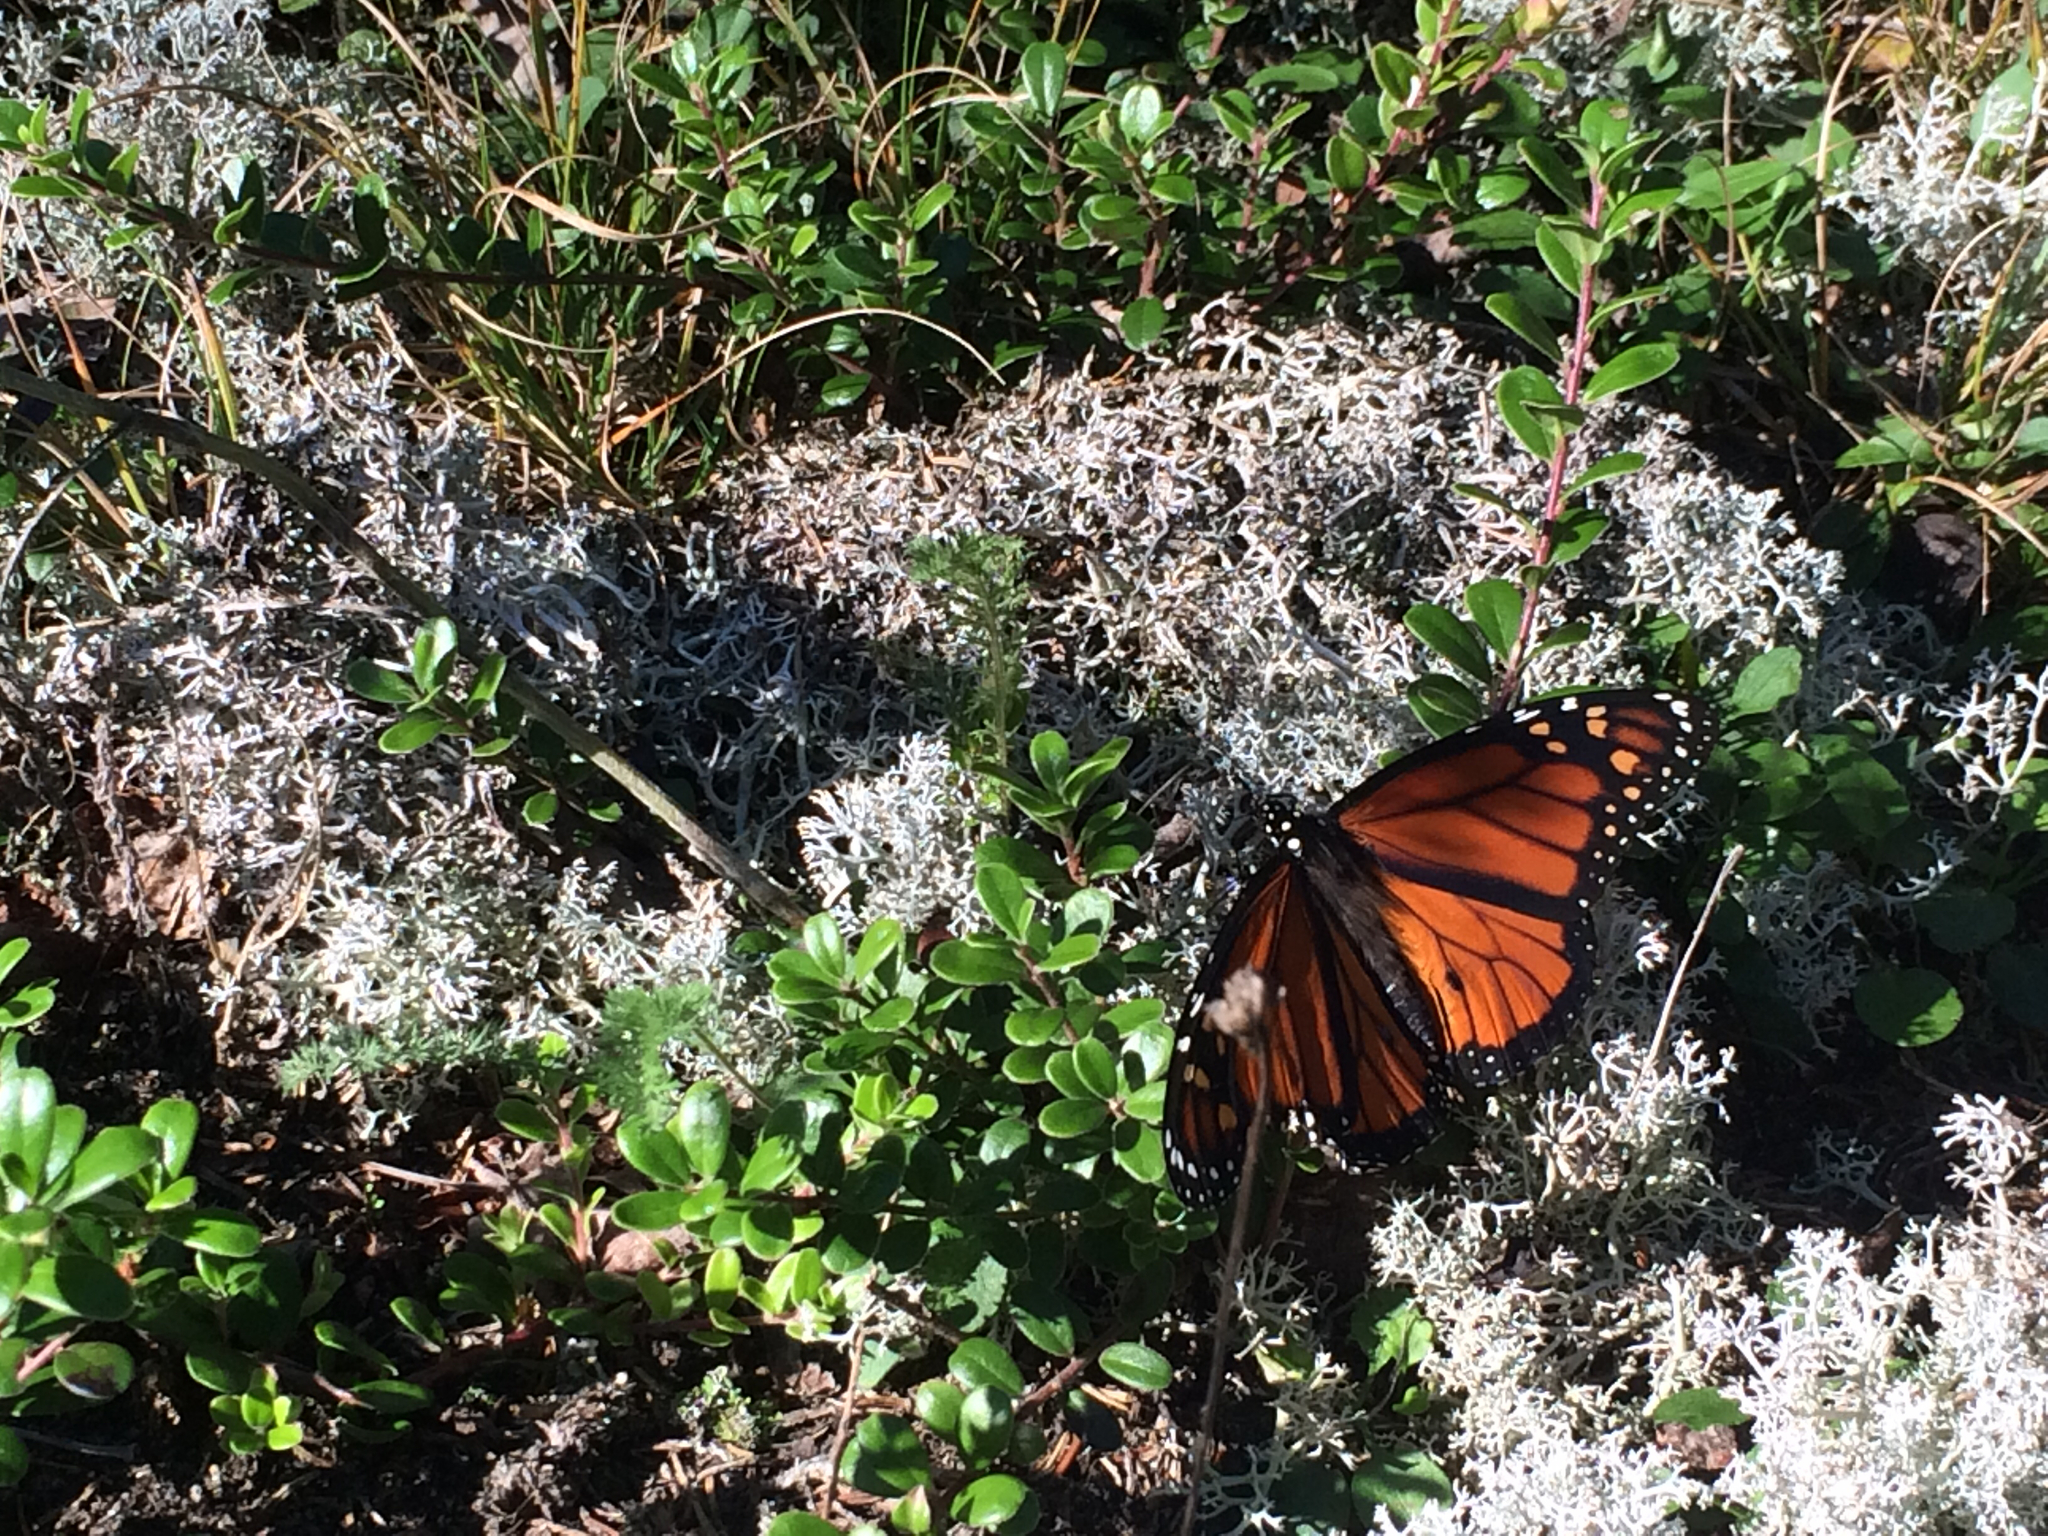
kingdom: Animalia
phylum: Arthropoda
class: Insecta
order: Lepidoptera
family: Nymphalidae
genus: Danaus
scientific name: Danaus plexippus
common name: Monarch
